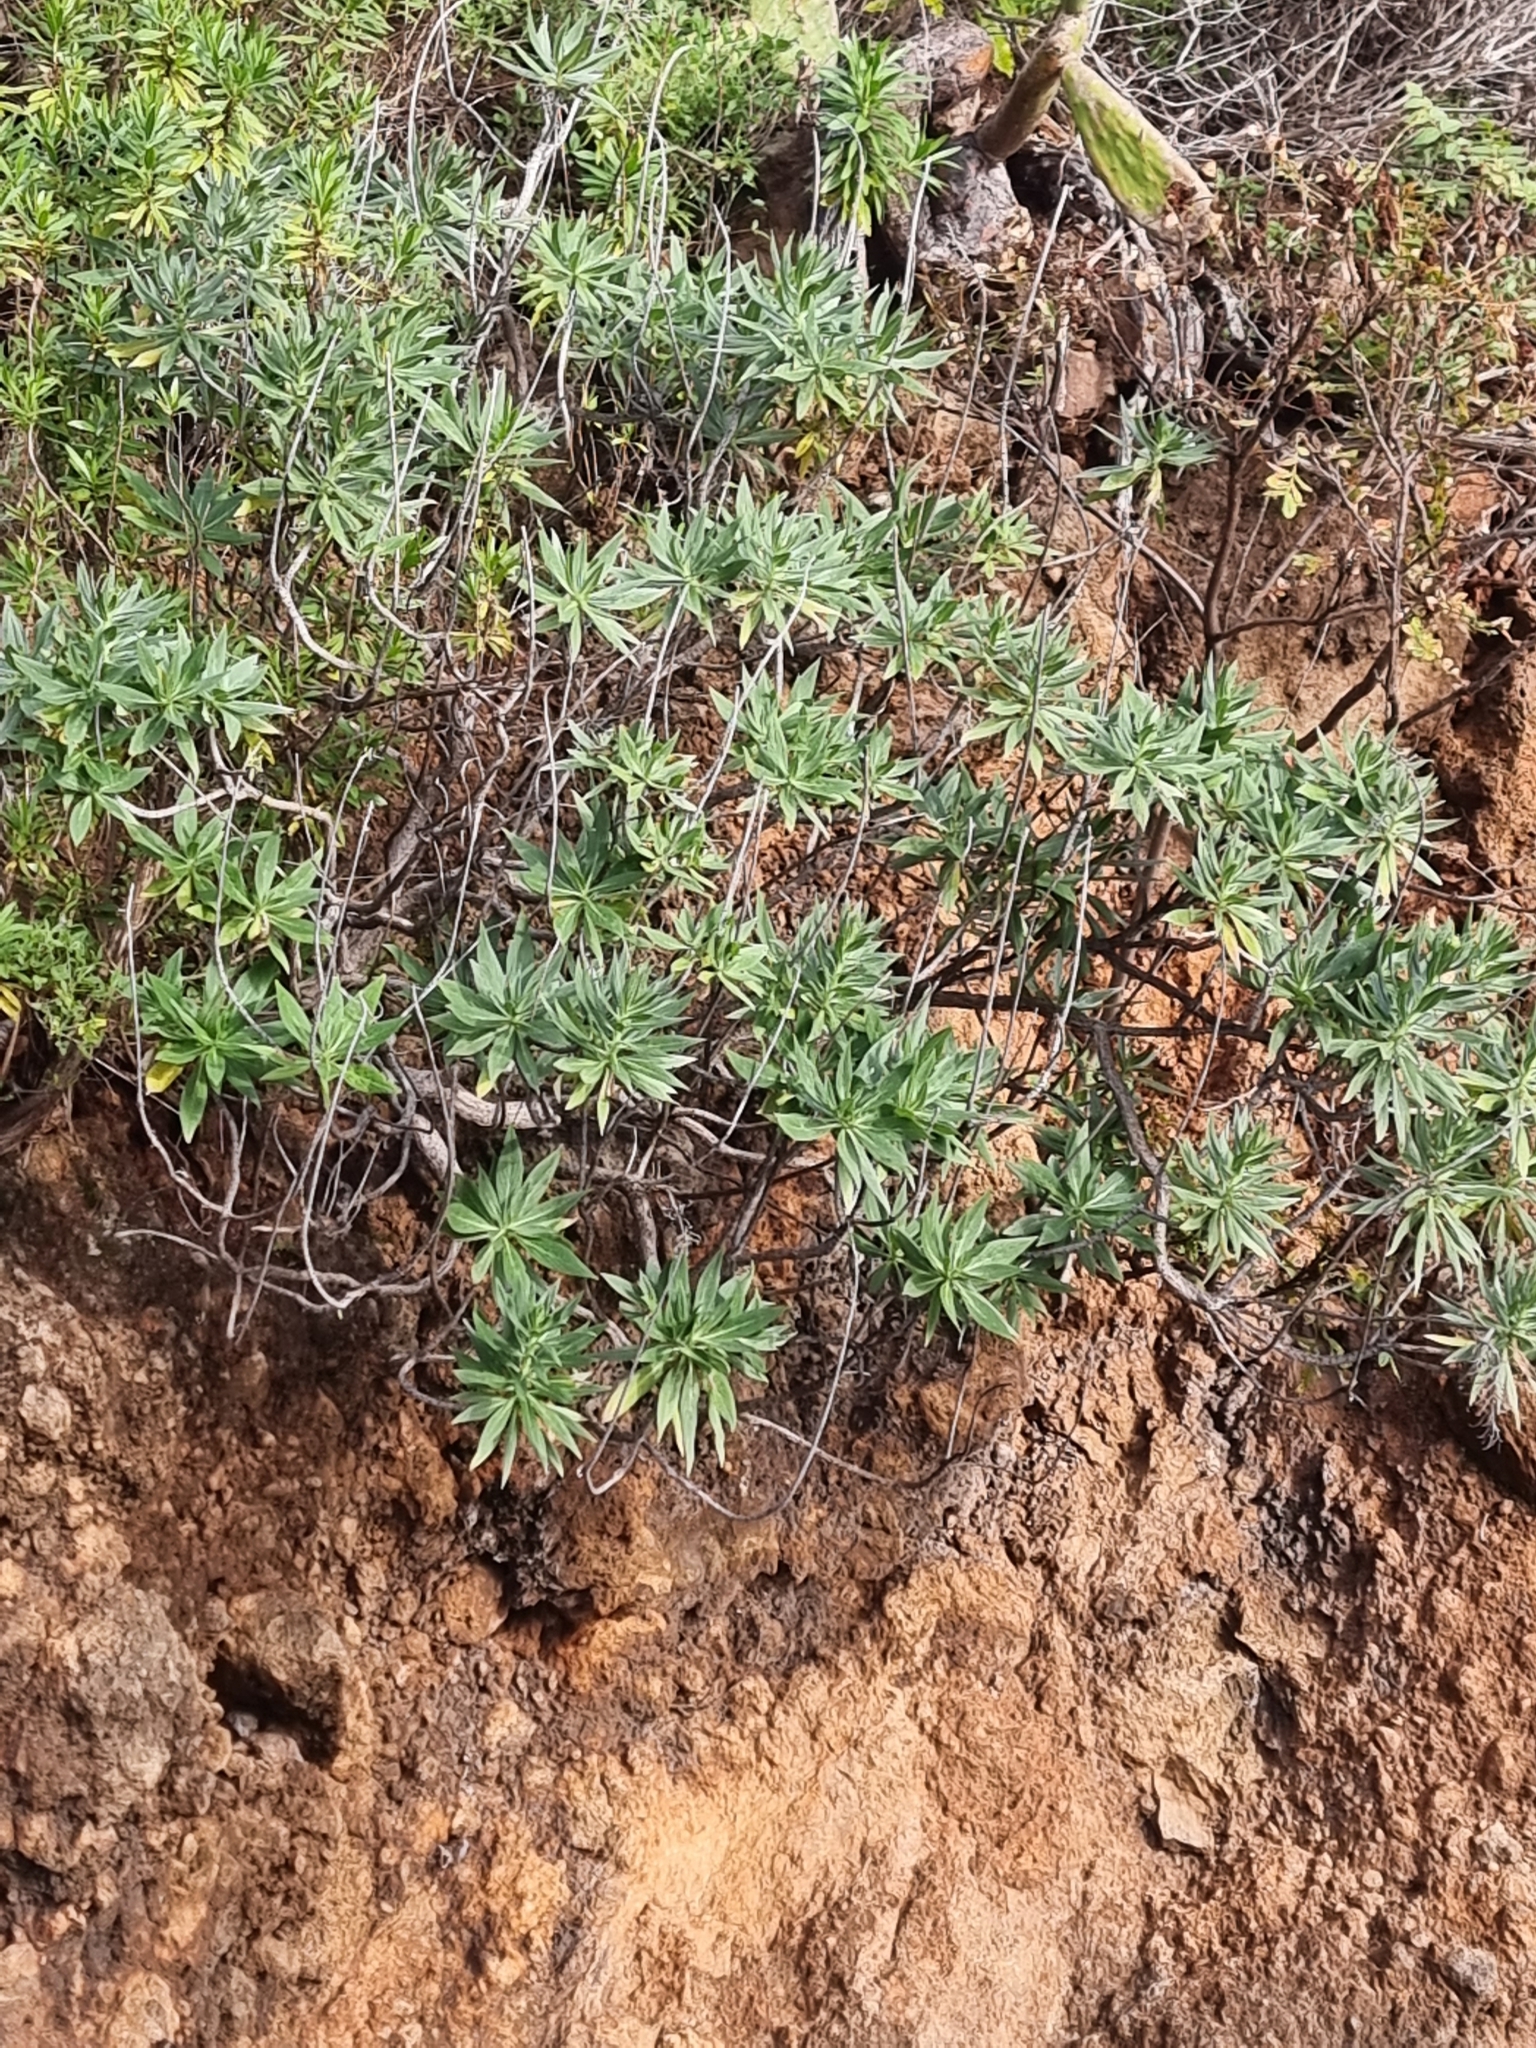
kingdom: Plantae
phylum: Tracheophyta
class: Magnoliopsida
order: Boraginales
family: Boraginaceae
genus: Echium
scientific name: Echium nervosum
